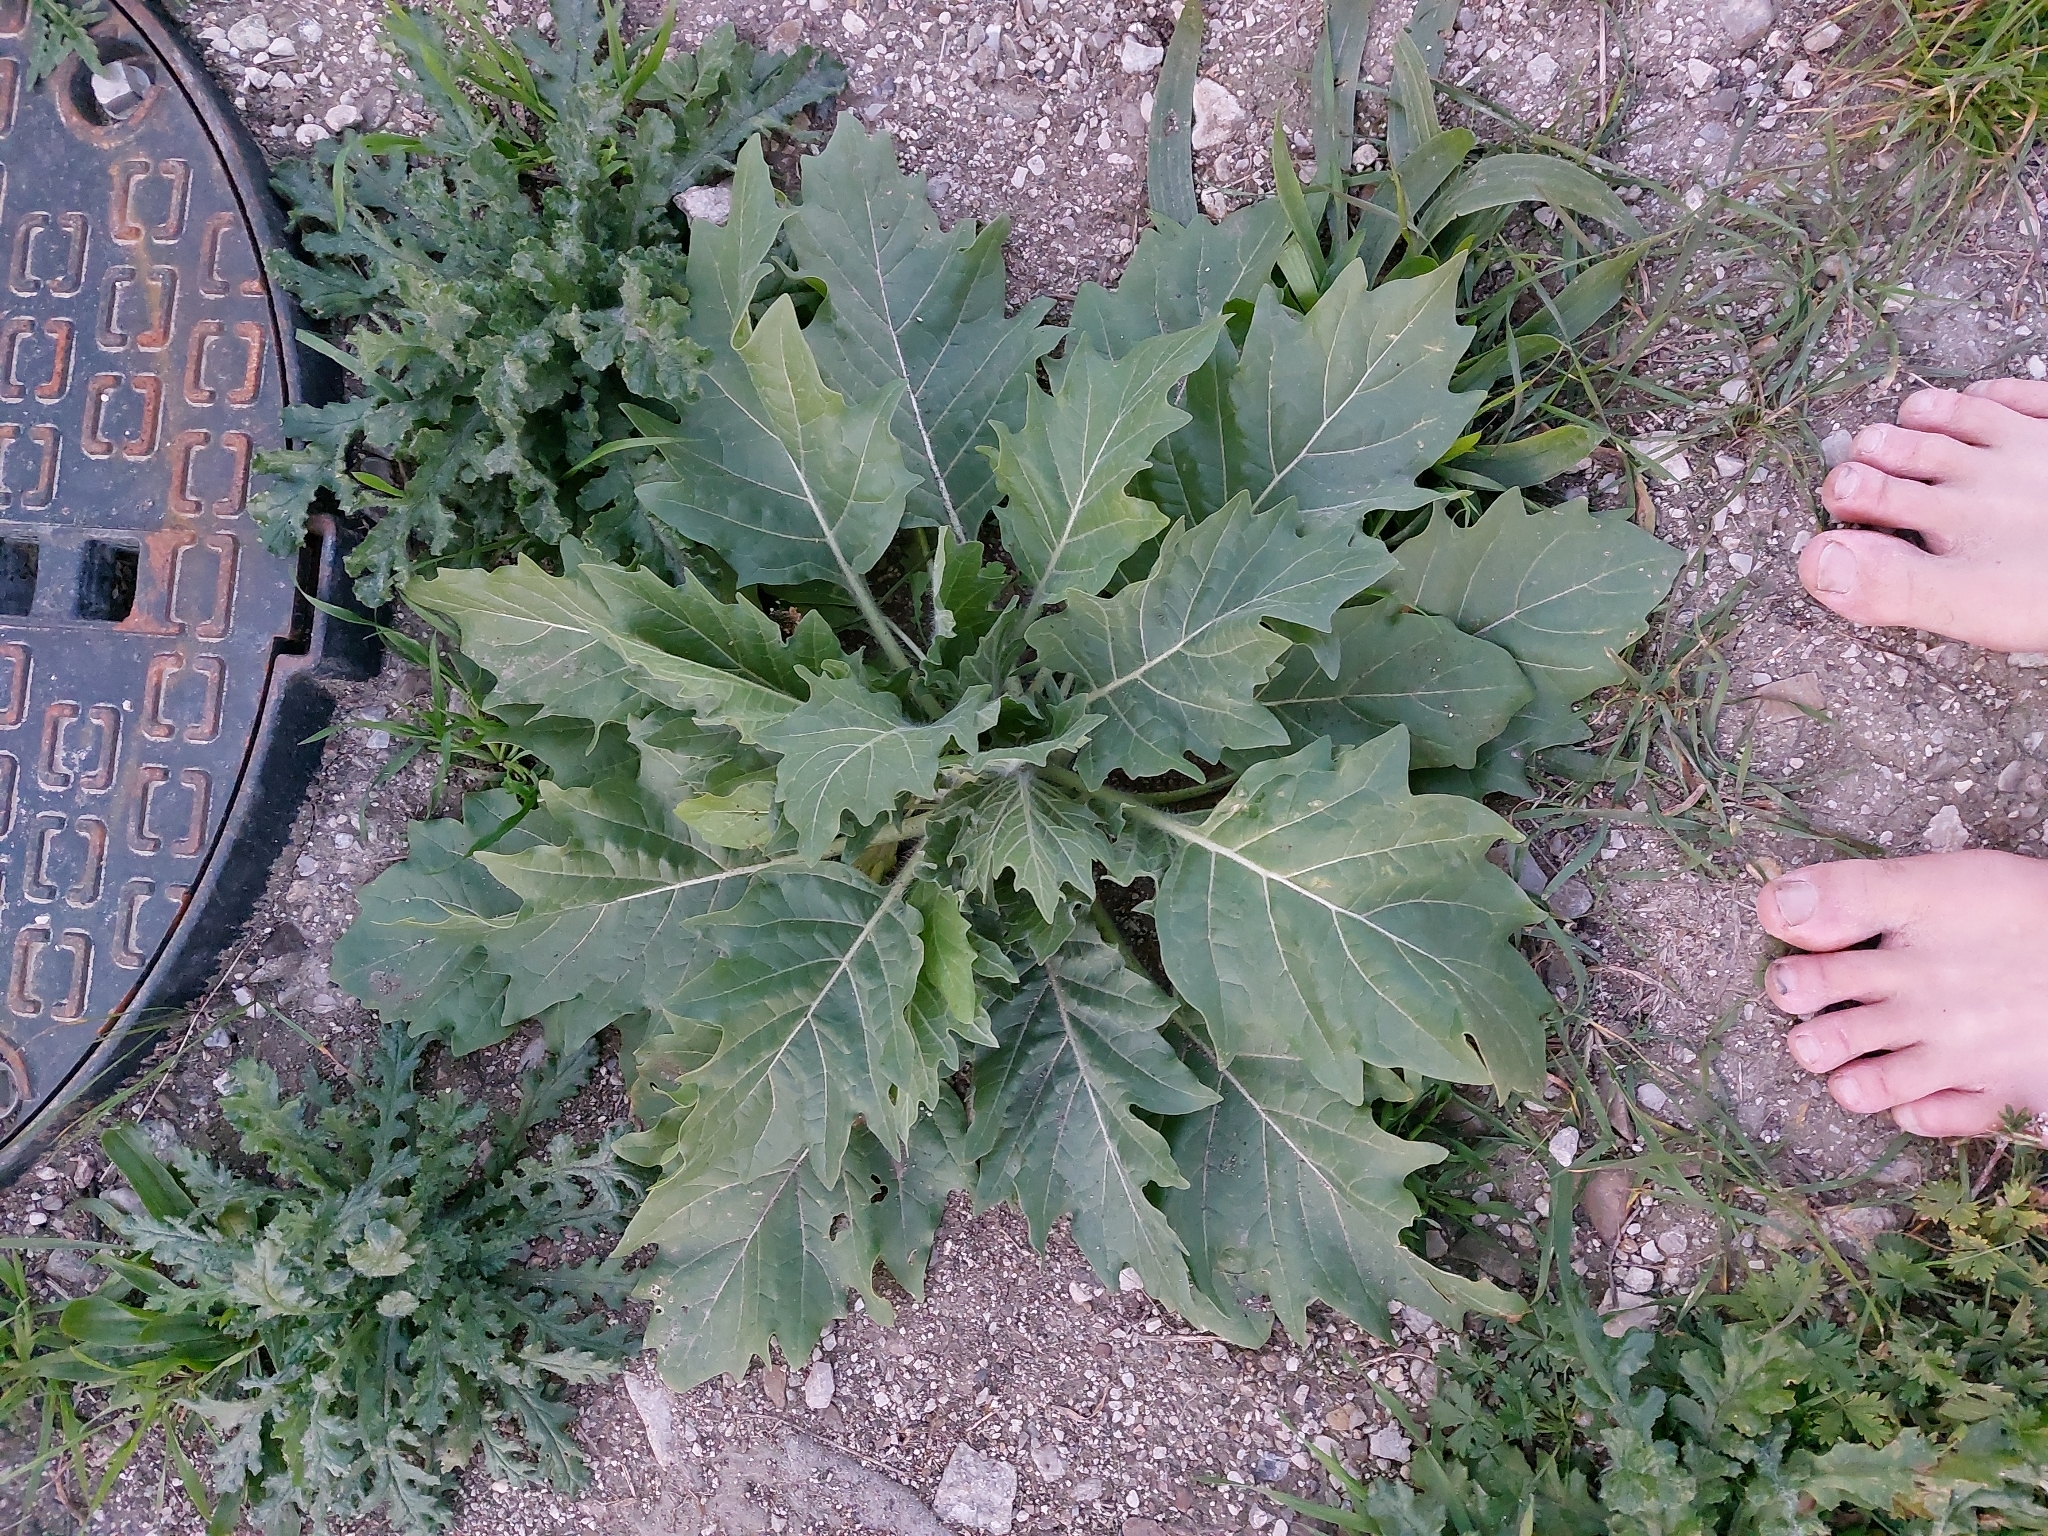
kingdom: Plantae
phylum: Tracheophyta
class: Magnoliopsida
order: Solanales
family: Solanaceae
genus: Hyoscyamus
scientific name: Hyoscyamus niger
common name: Henbane
